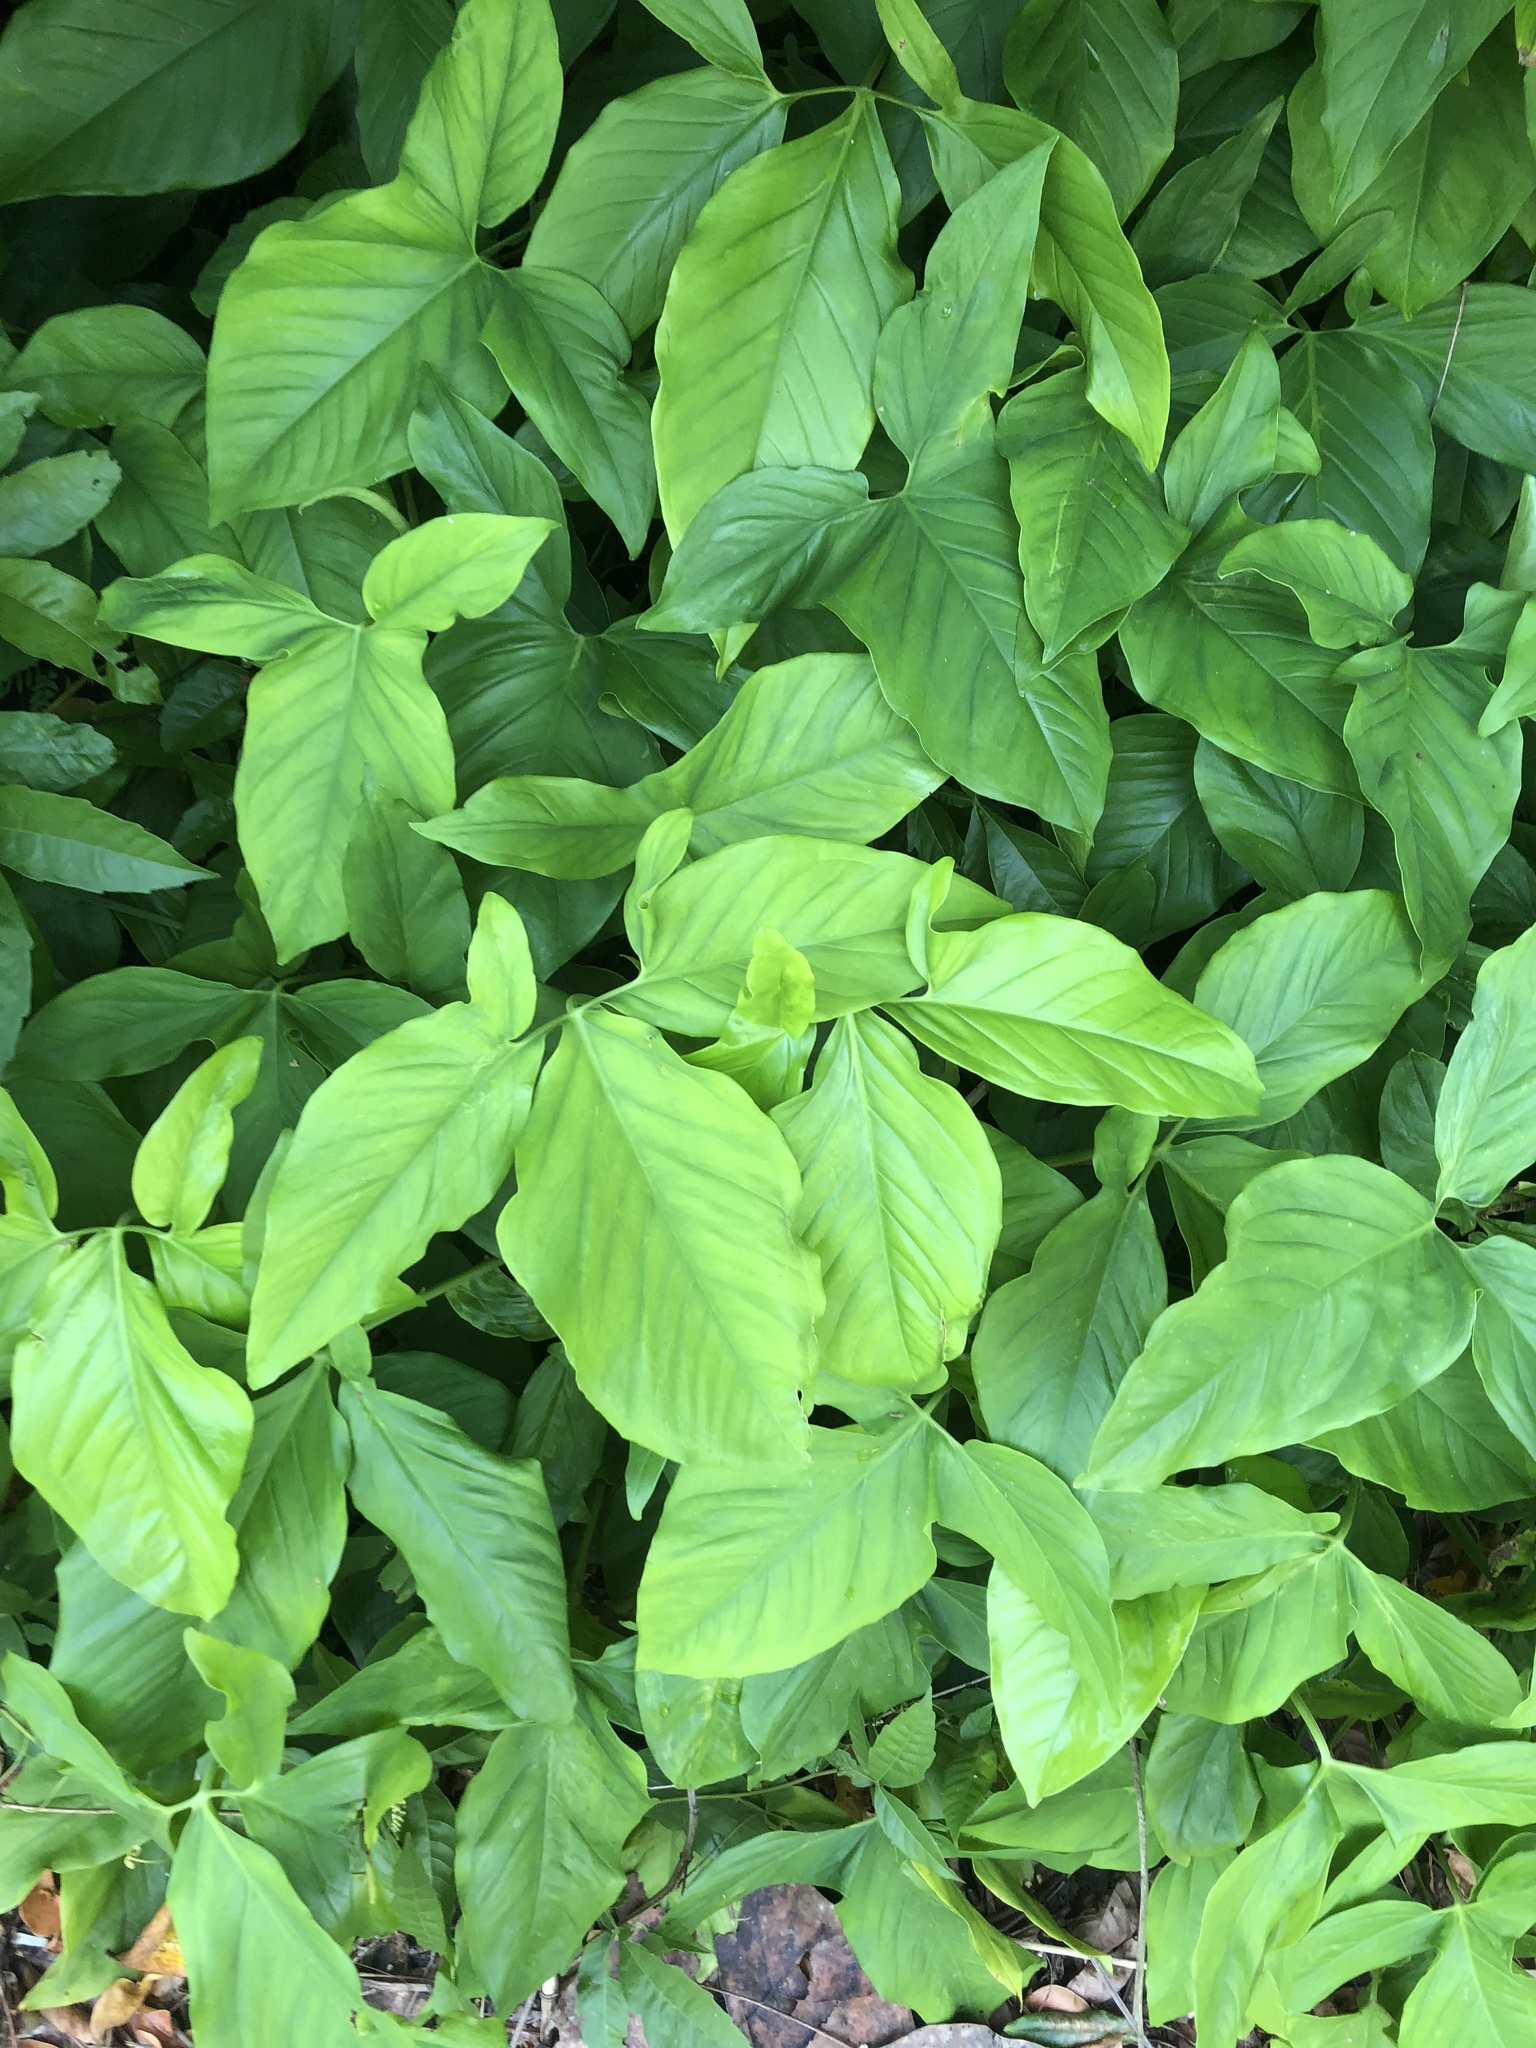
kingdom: Plantae
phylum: Tracheophyta
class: Liliopsida
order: Alismatales
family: Araceae
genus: Syngonium
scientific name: Syngonium podophyllum
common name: American evergreen
